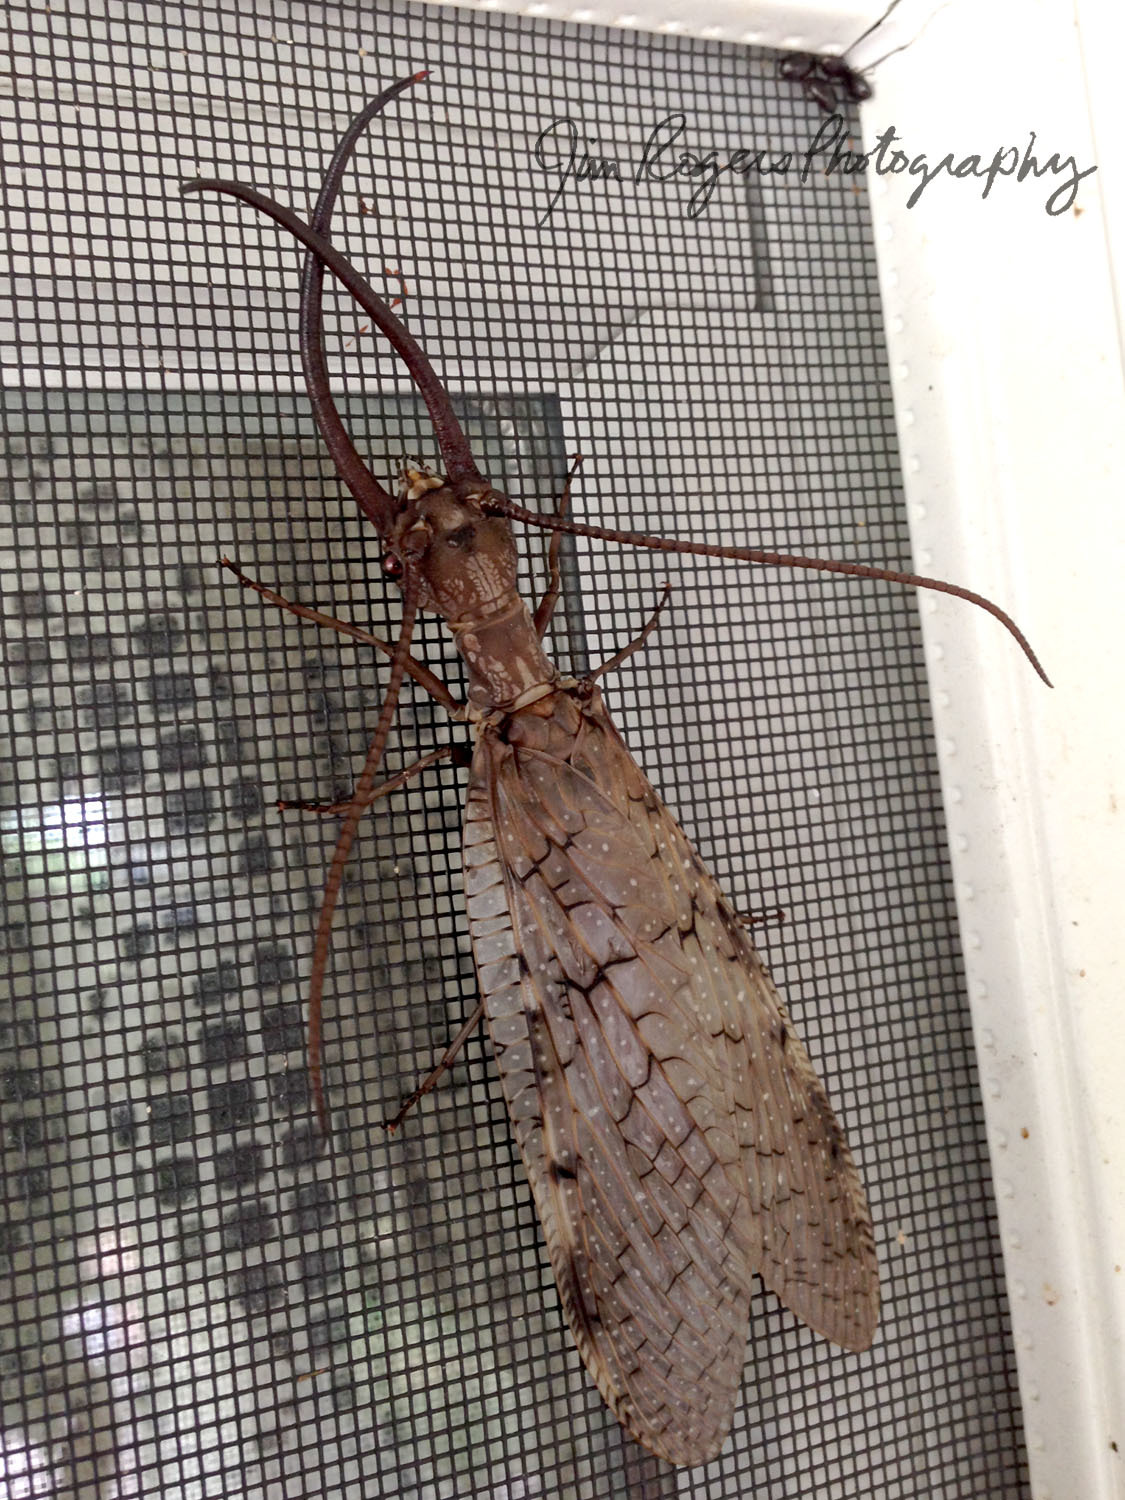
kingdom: Animalia
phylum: Arthropoda
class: Insecta
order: Megaloptera
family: Corydalidae
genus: Corydalus
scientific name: Corydalus cornutus
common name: Dobsonfly
